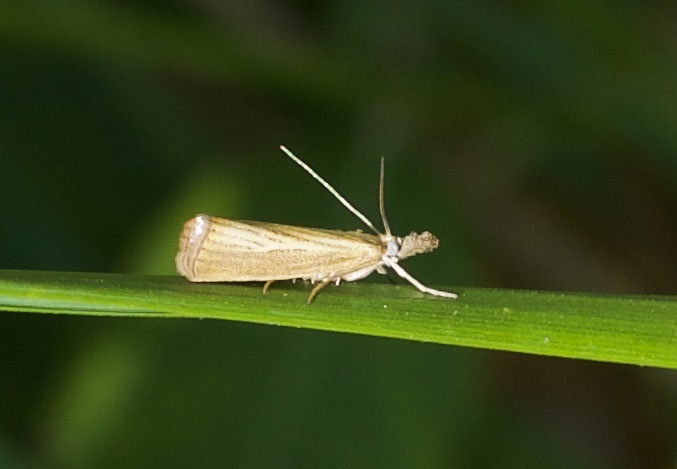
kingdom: Animalia
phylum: Arthropoda
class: Insecta
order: Lepidoptera
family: Crambidae
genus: Agriphila
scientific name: Agriphila straminella
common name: Straw grass-veneer
